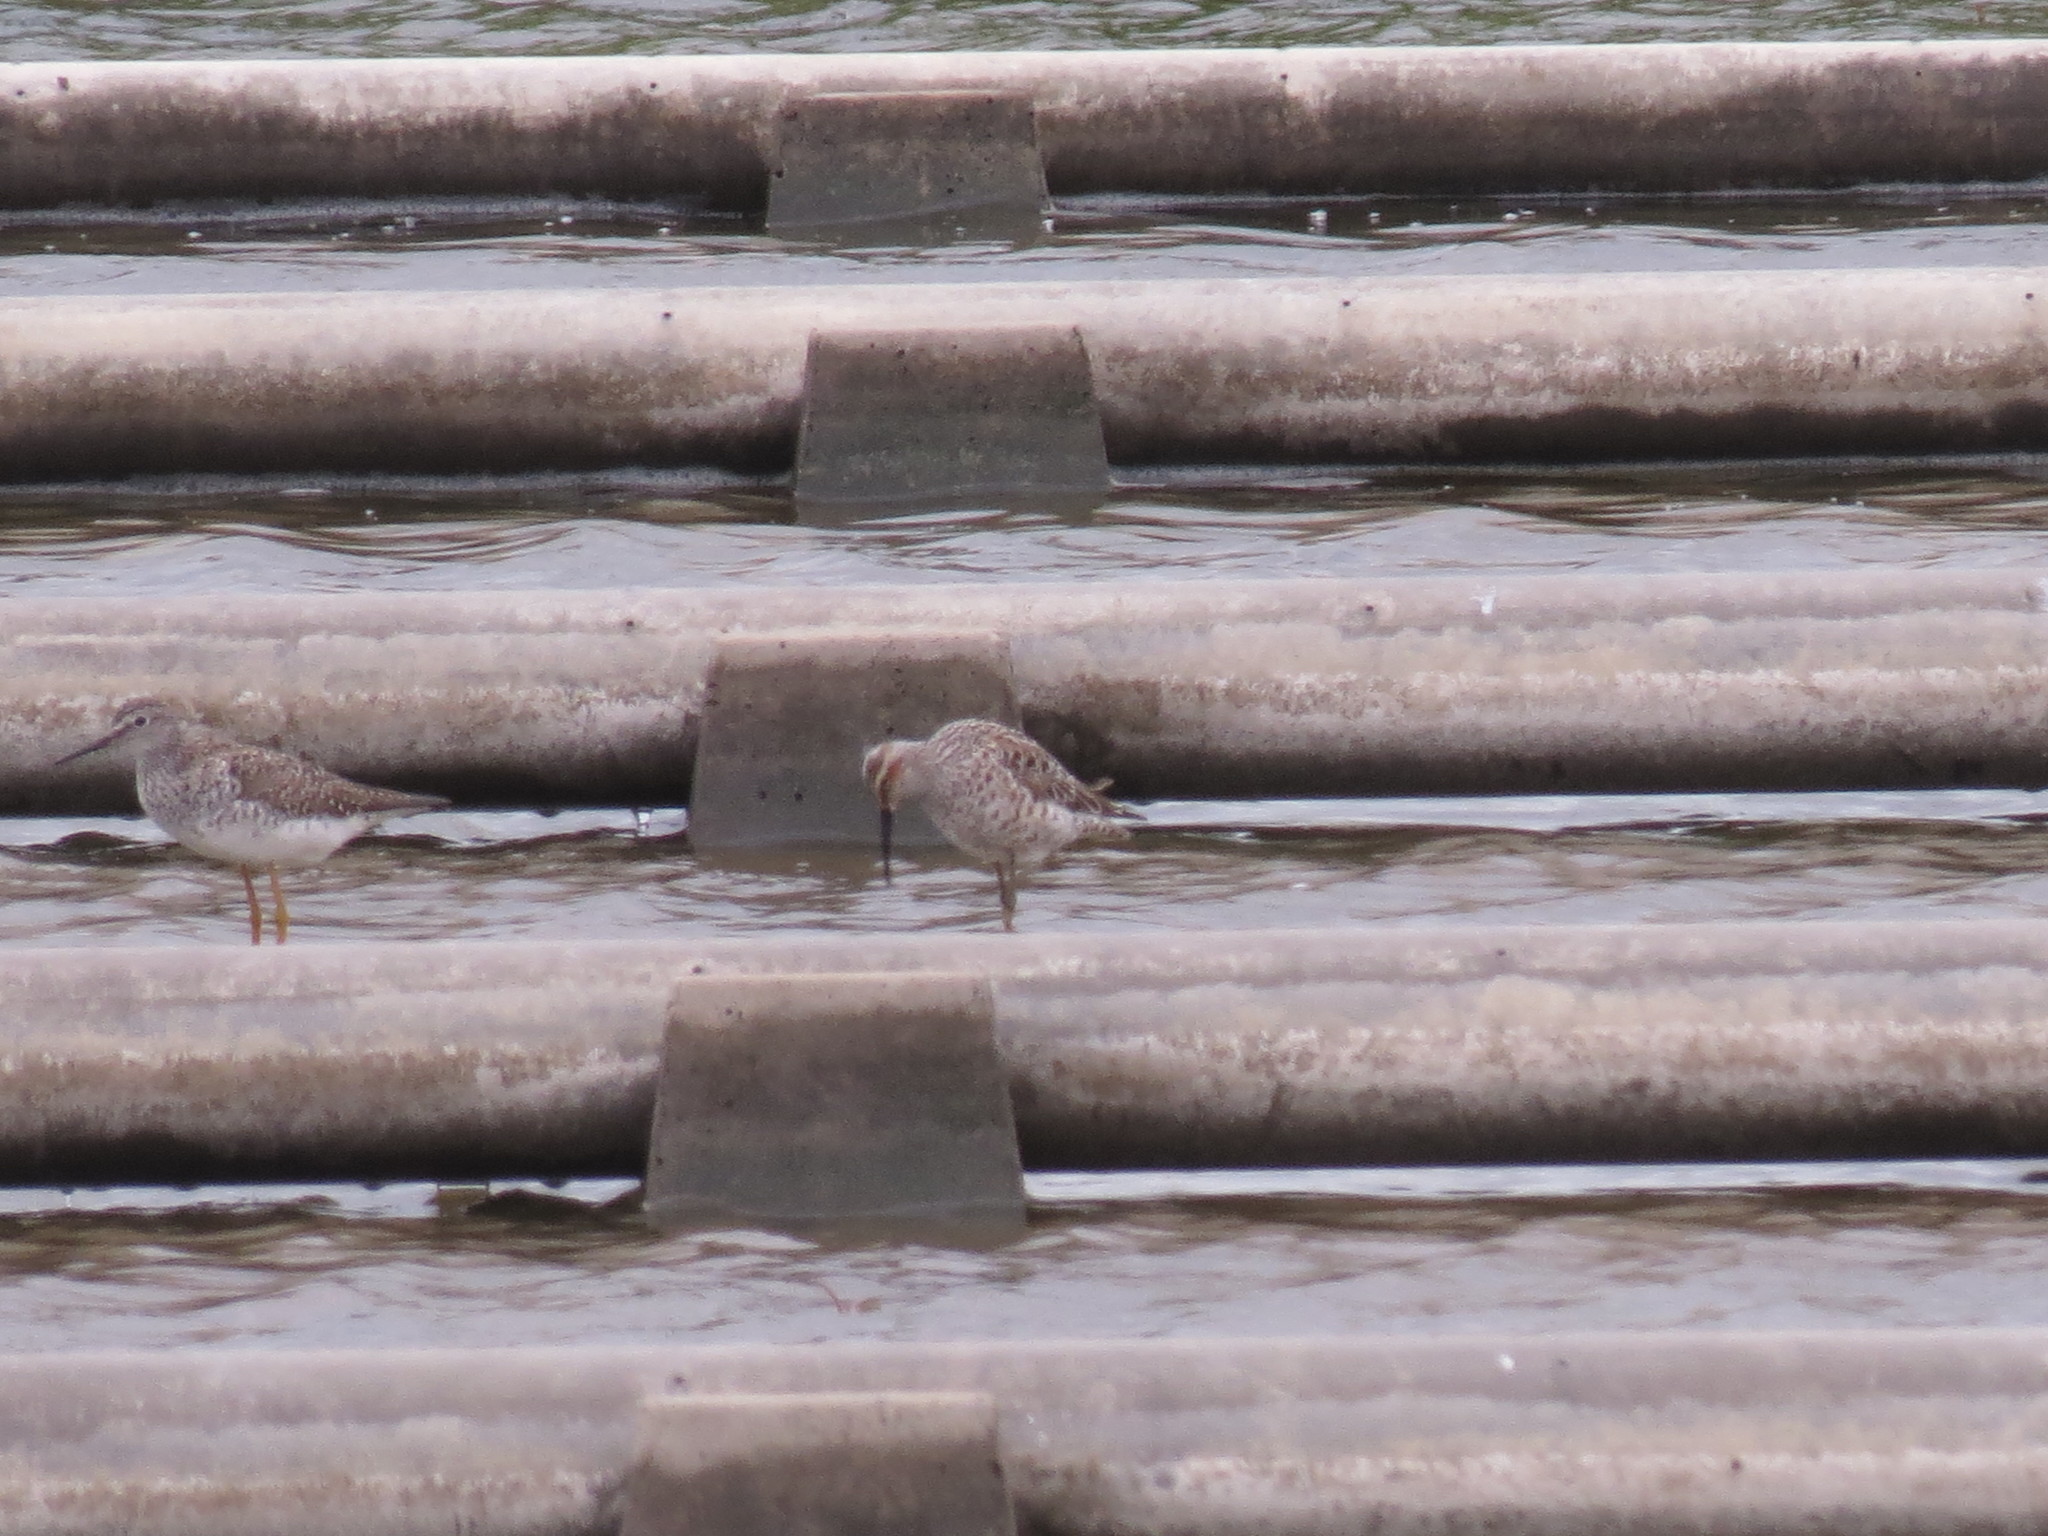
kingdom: Animalia
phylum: Chordata
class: Aves
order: Charadriiformes
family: Scolopacidae
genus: Calidris
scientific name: Calidris himantopus
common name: Stilt sandpiper
